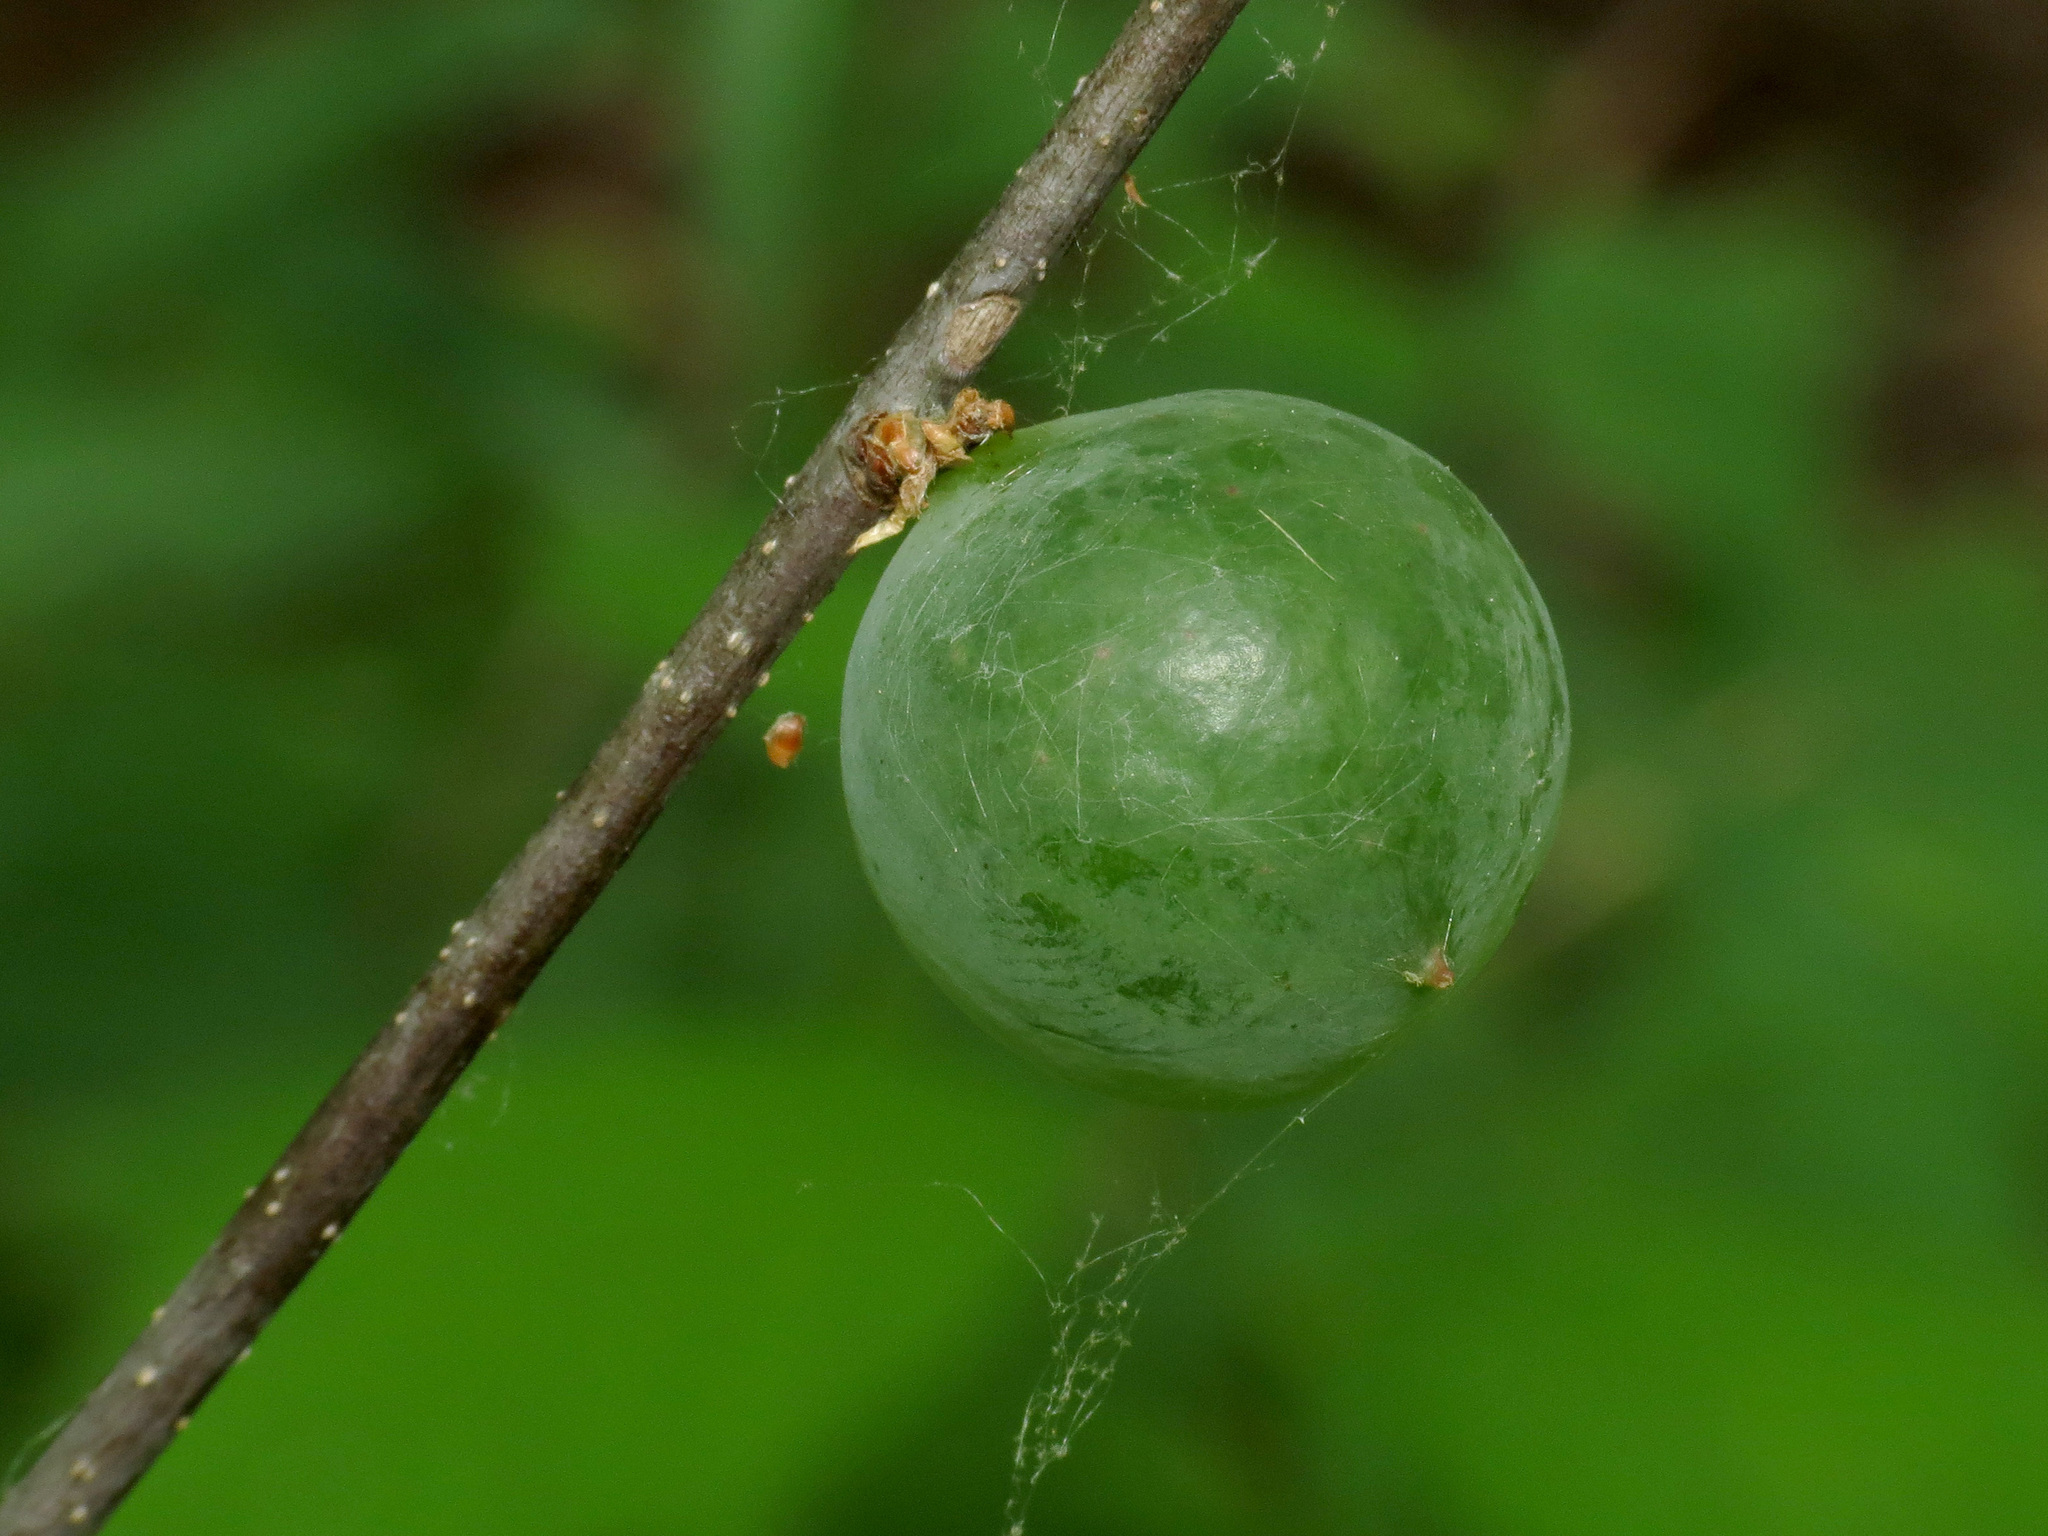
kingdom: Animalia
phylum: Arthropoda
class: Insecta
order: Hymenoptera
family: Cynipidae
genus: Amphibolips
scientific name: Amphibolips
